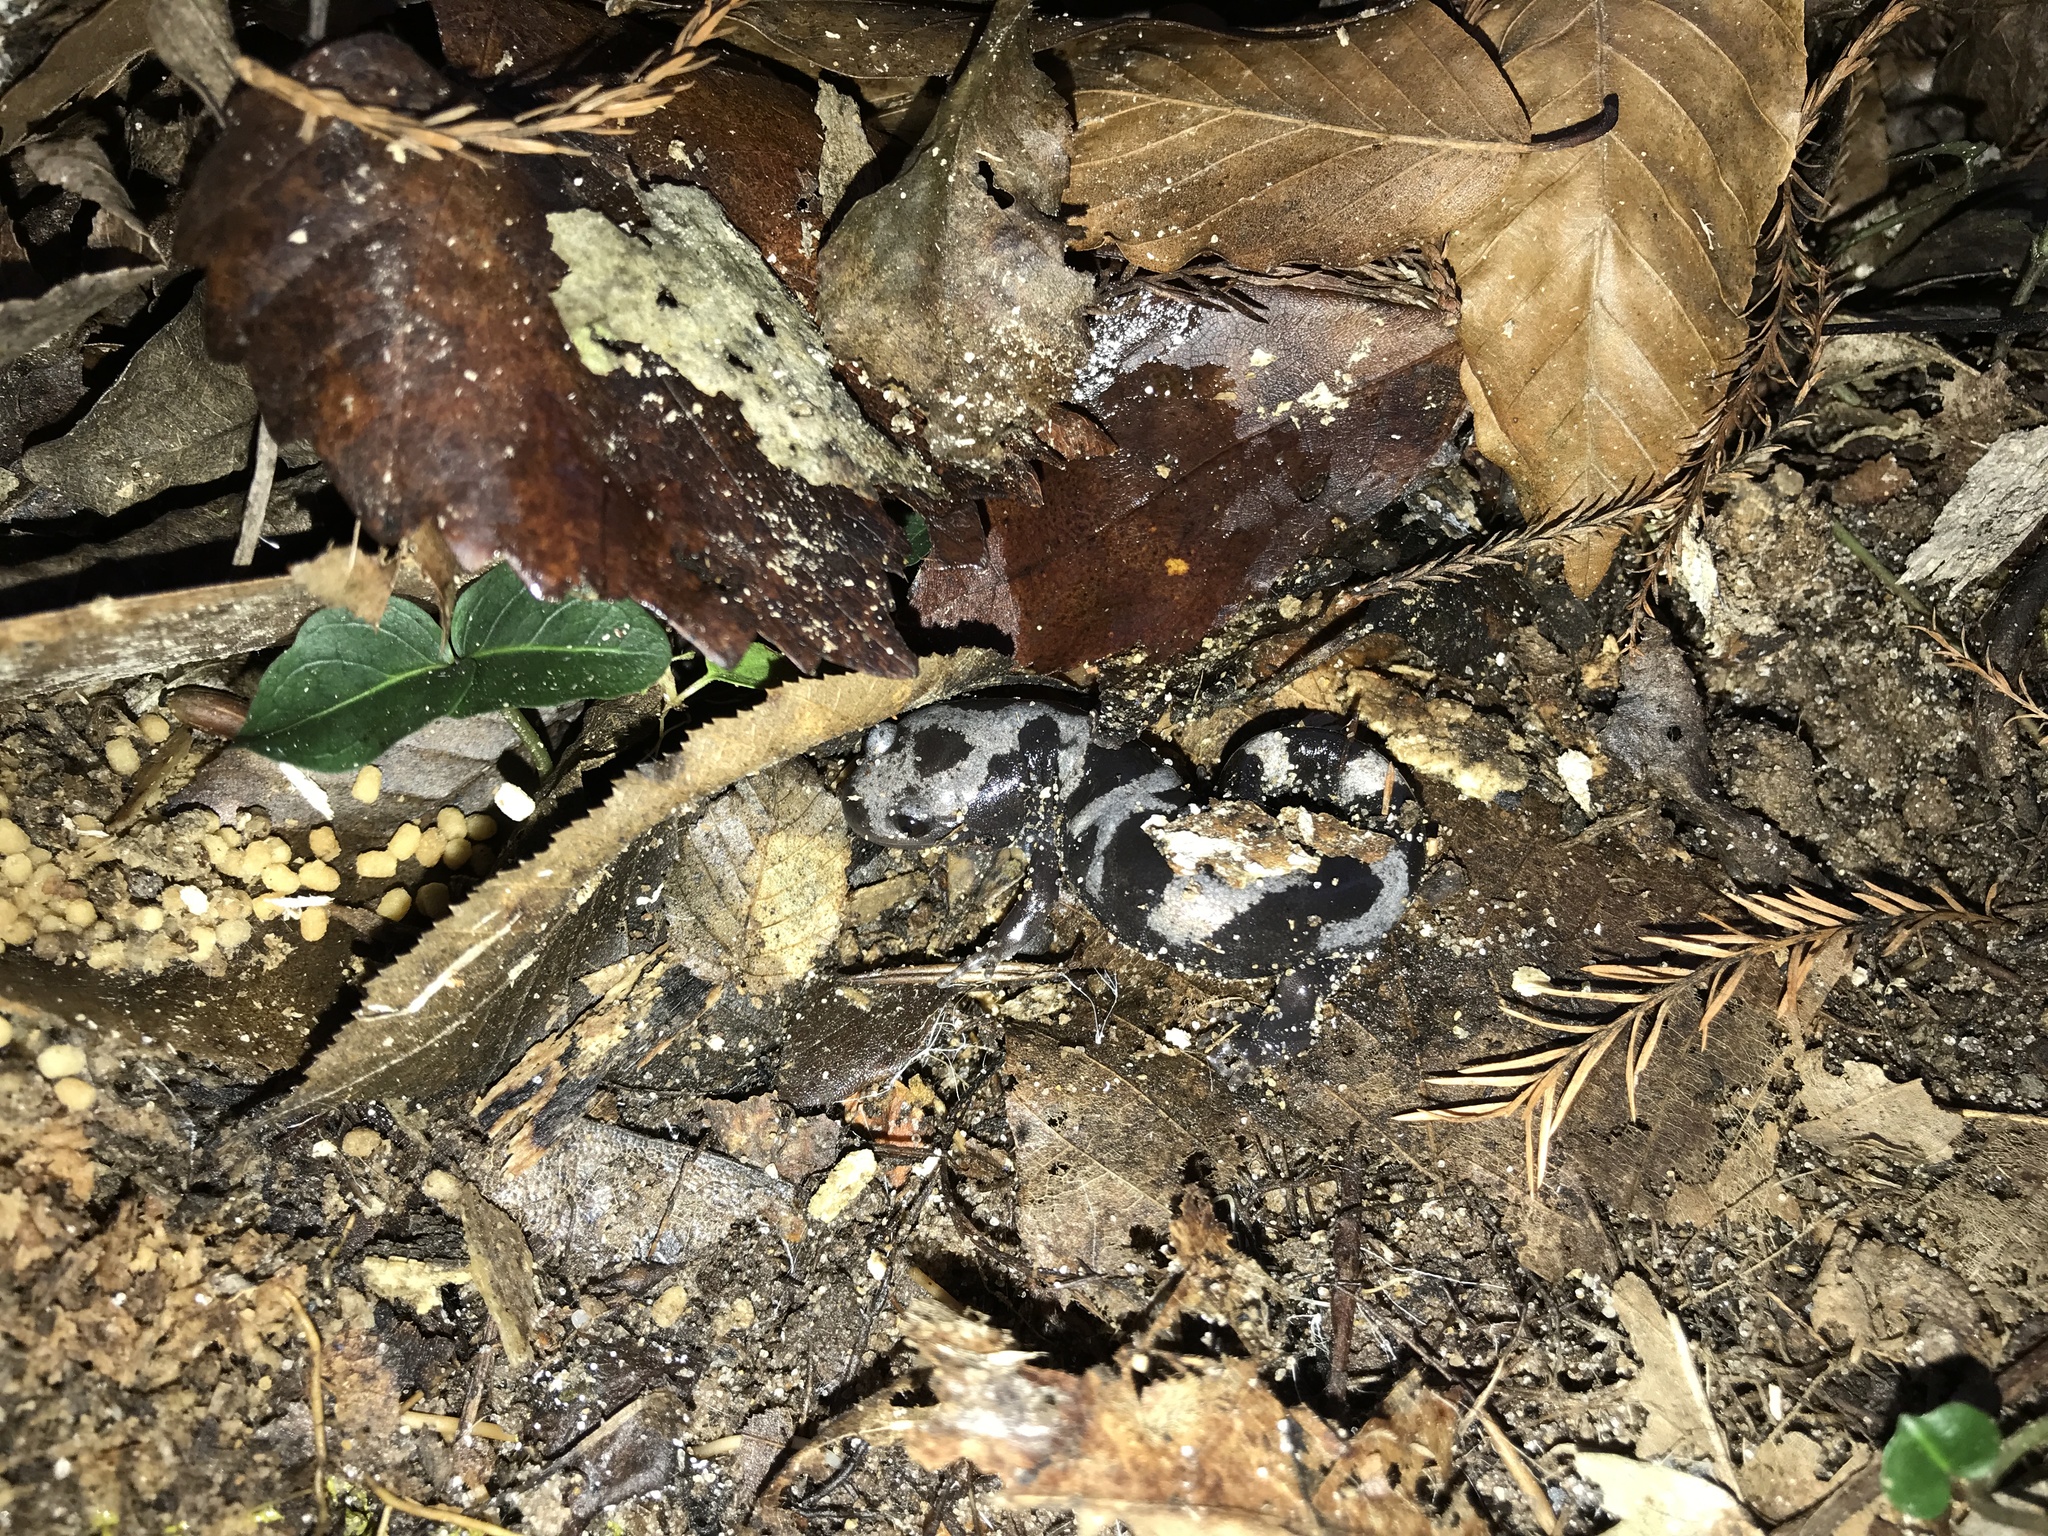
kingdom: Animalia
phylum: Chordata
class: Amphibia
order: Caudata
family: Ambystomatidae
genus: Ambystoma
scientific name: Ambystoma opacum
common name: Marbled salamander
